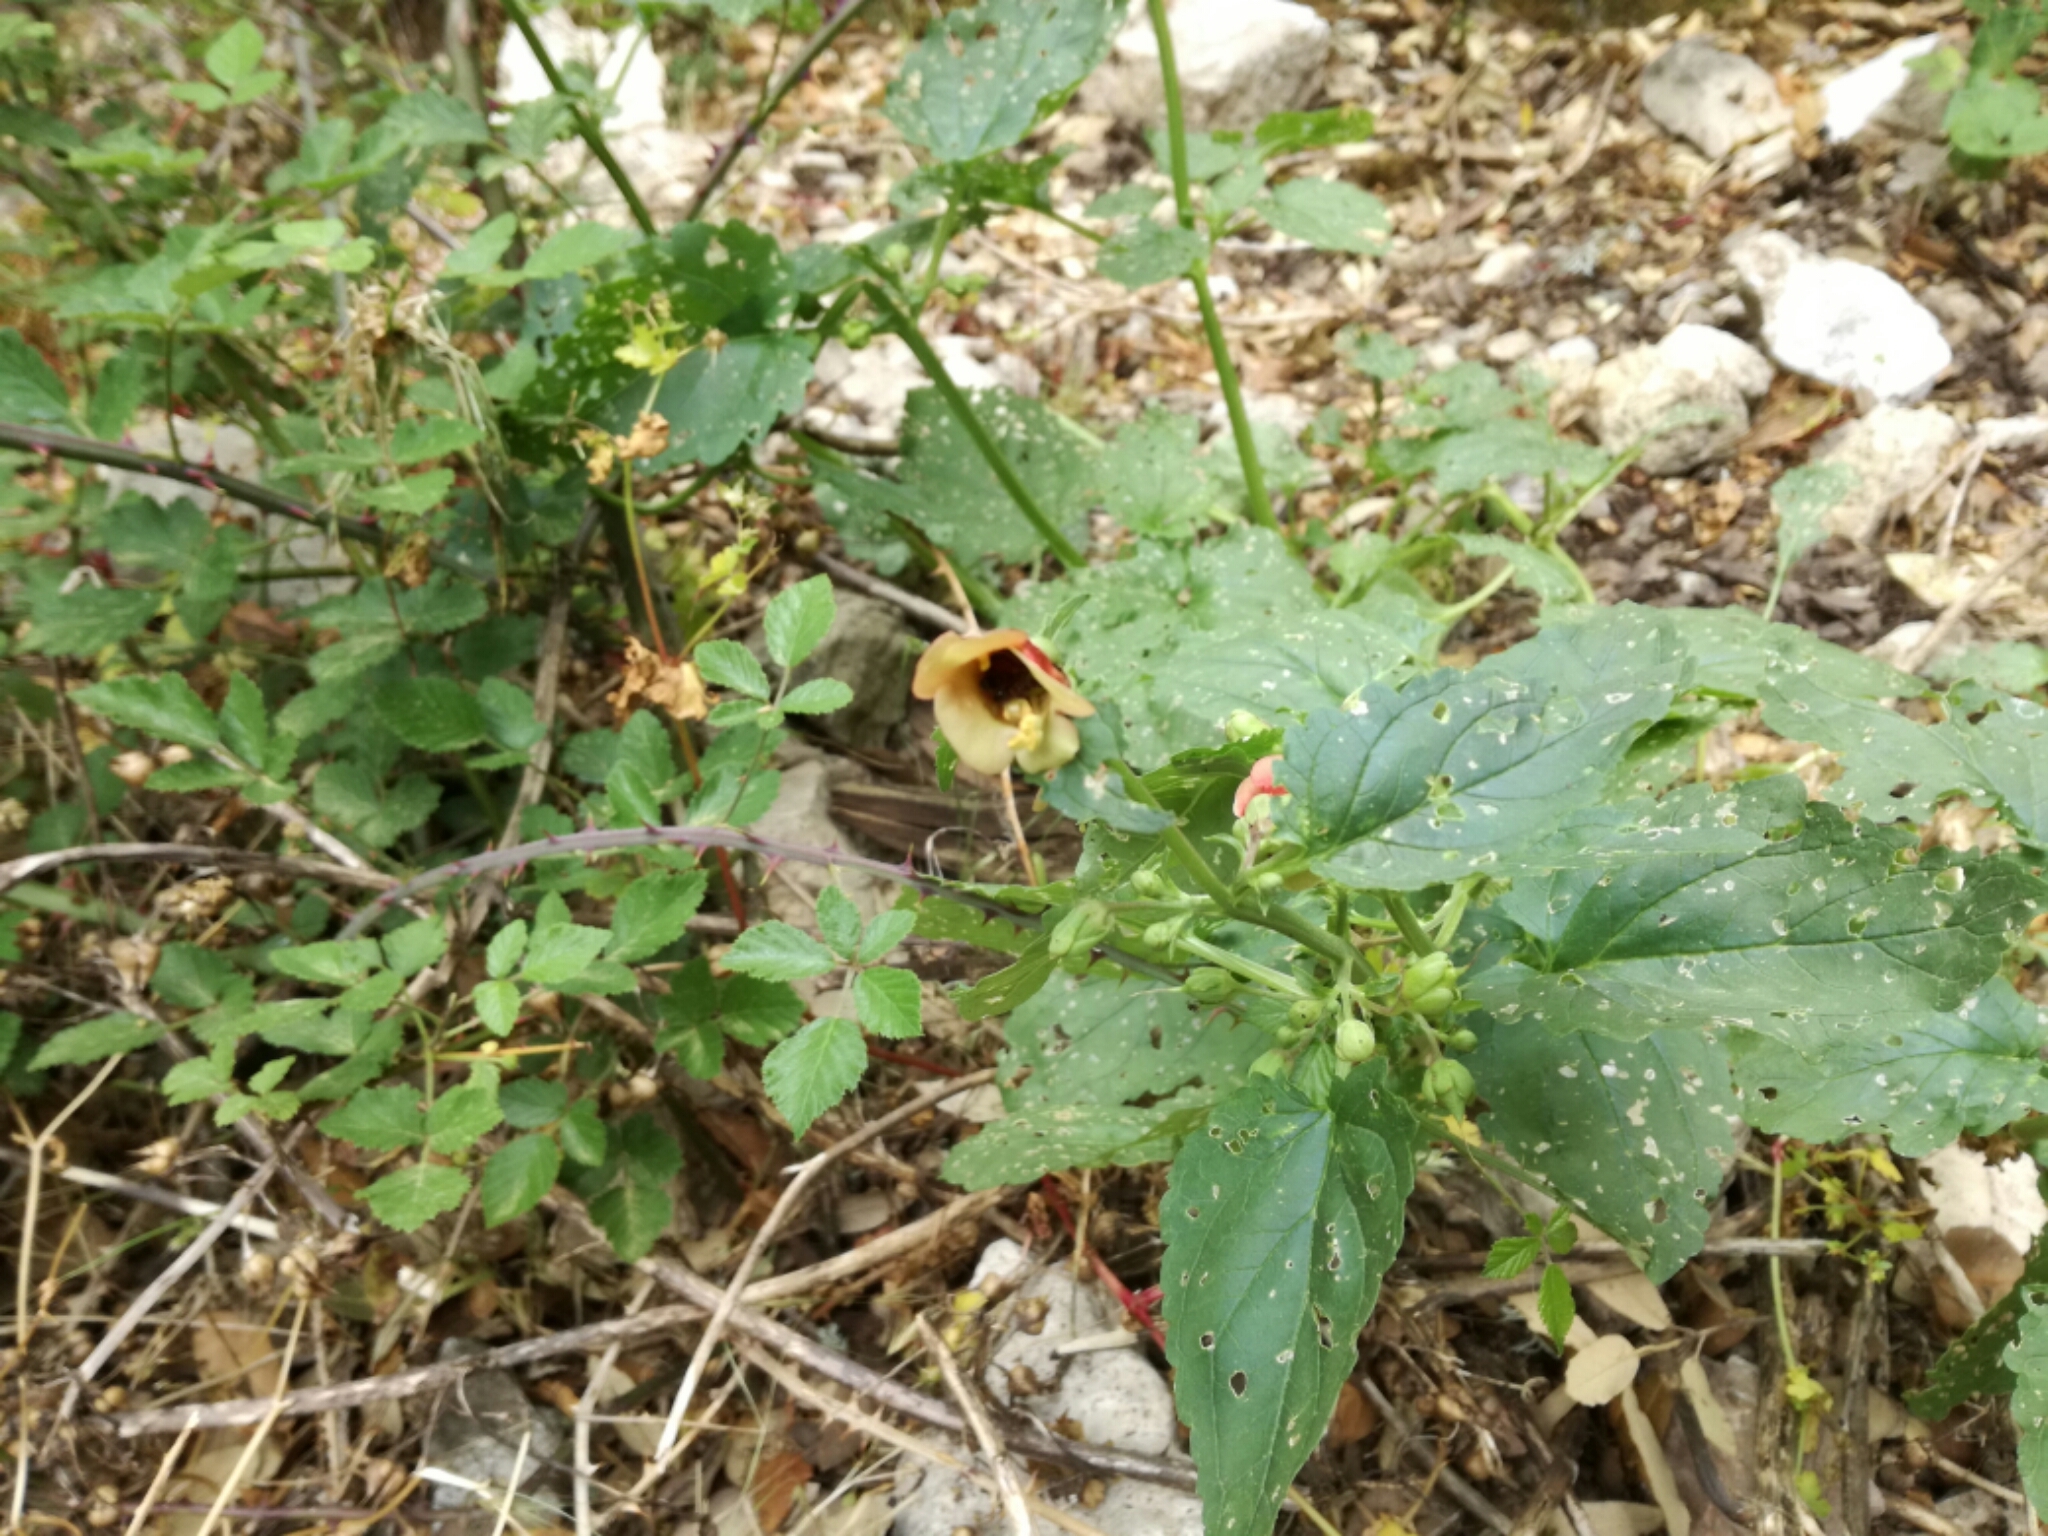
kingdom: Plantae
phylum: Tracheophyta
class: Magnoliopsida
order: Lamiales
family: Scrophulariaceae
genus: Scrophularia
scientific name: Scrophularia trifoliata
